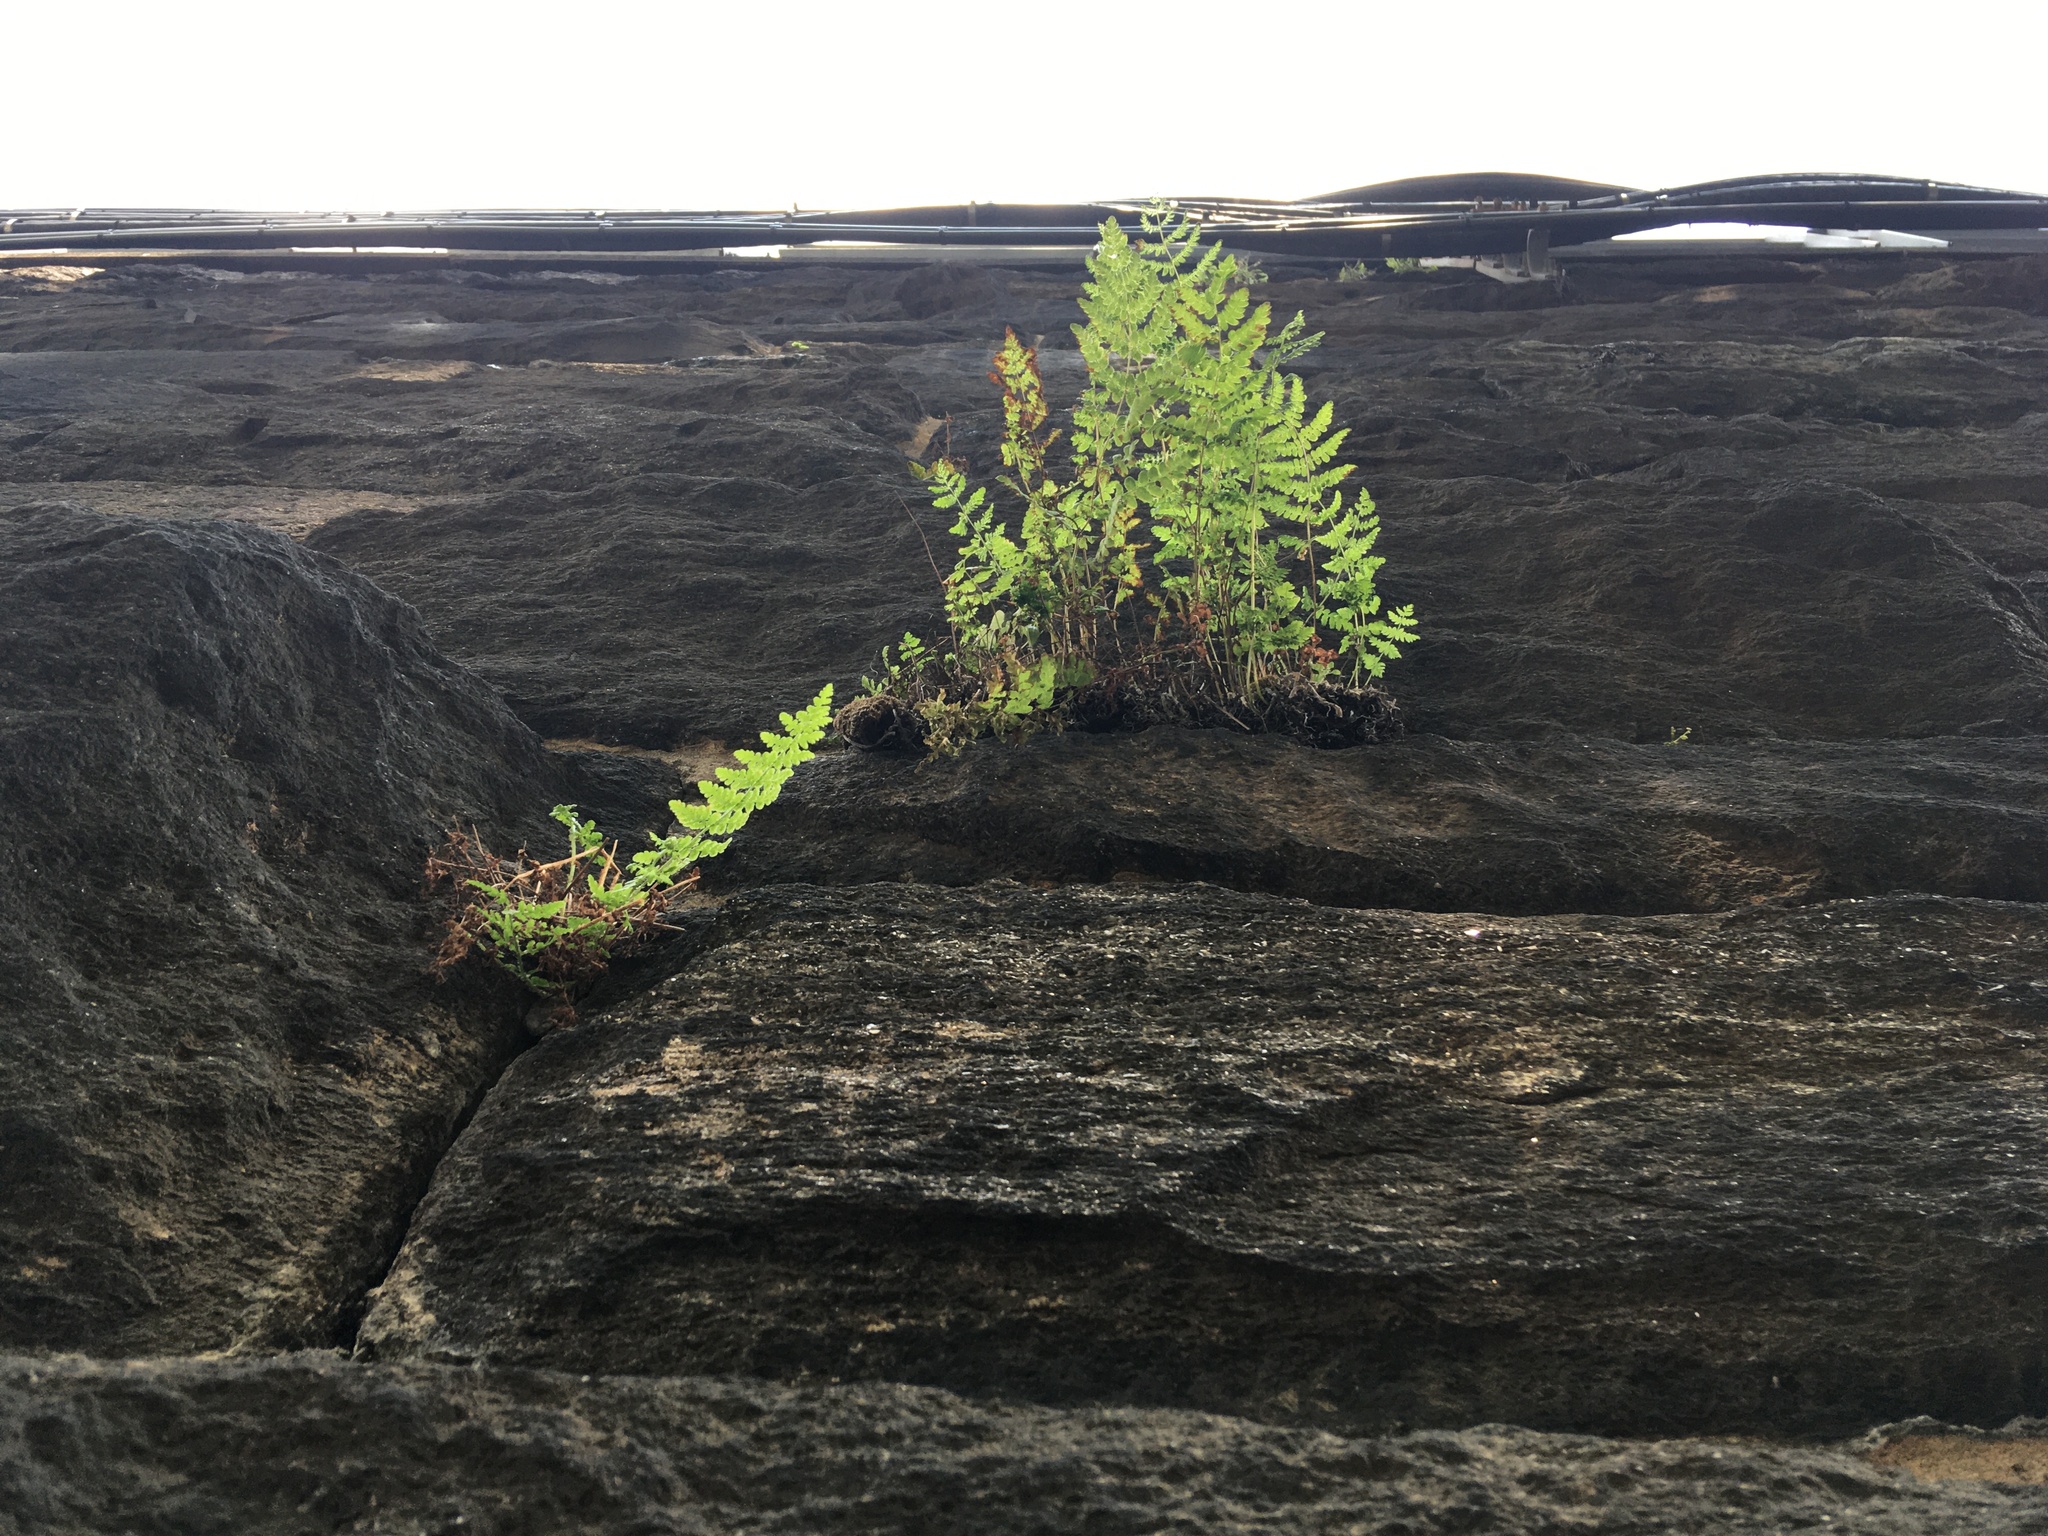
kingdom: Plantae
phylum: Tracheophyta
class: Polypodiopsida
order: Polypodiales
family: Woodsiaceae
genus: Physematium
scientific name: Physematium obtusum
